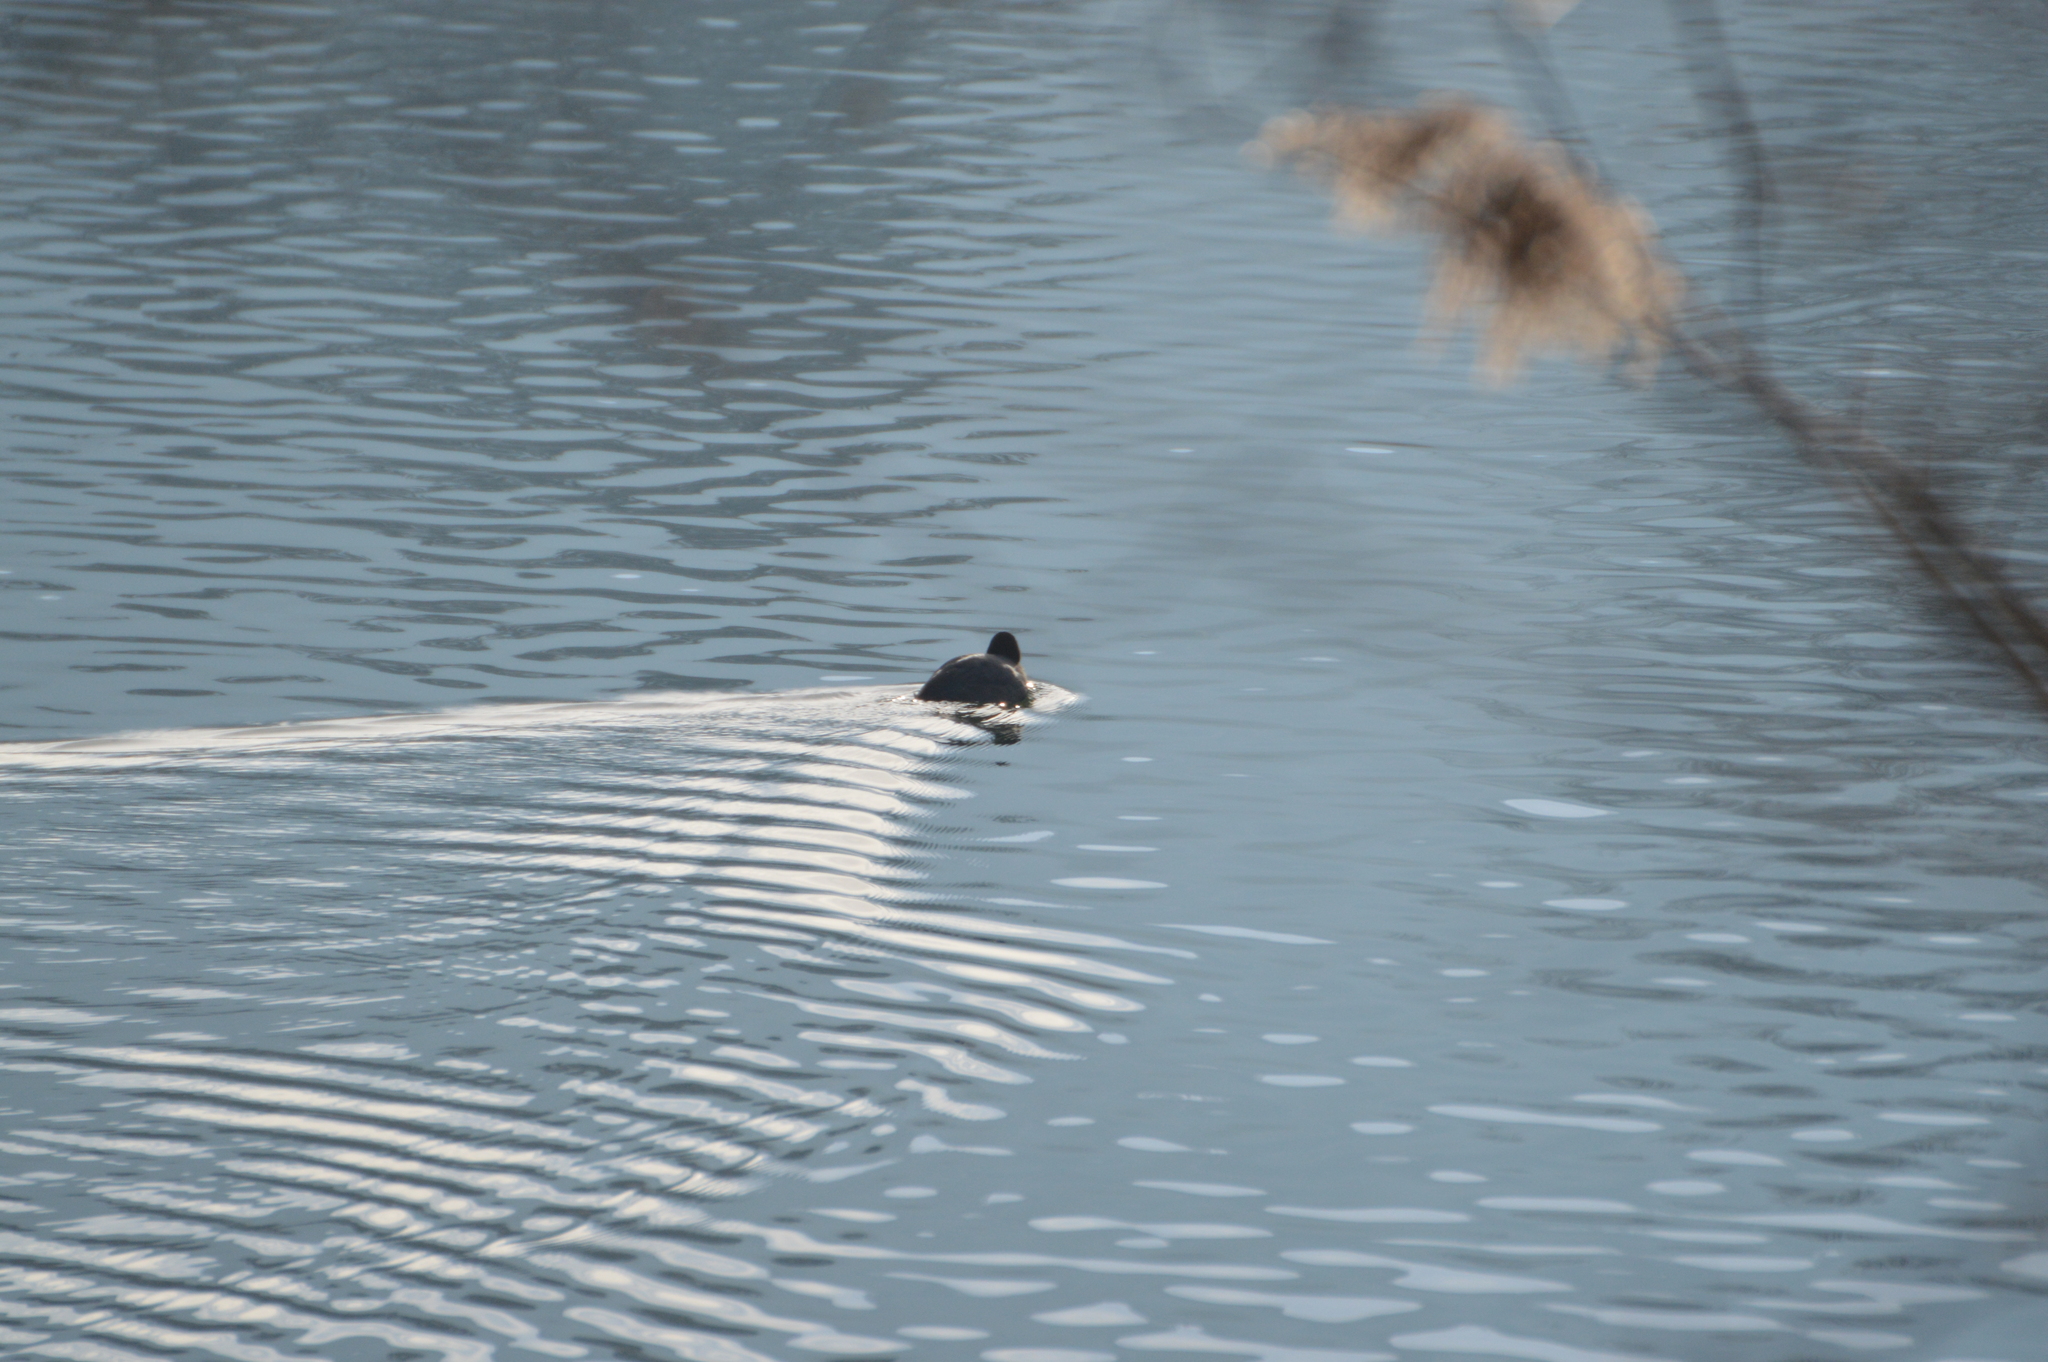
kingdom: Animalia
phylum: Chordata
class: Aves
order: Gruiformes
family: Rallidae
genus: Fulica
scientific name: Fulica atra
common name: Eurasian coot
